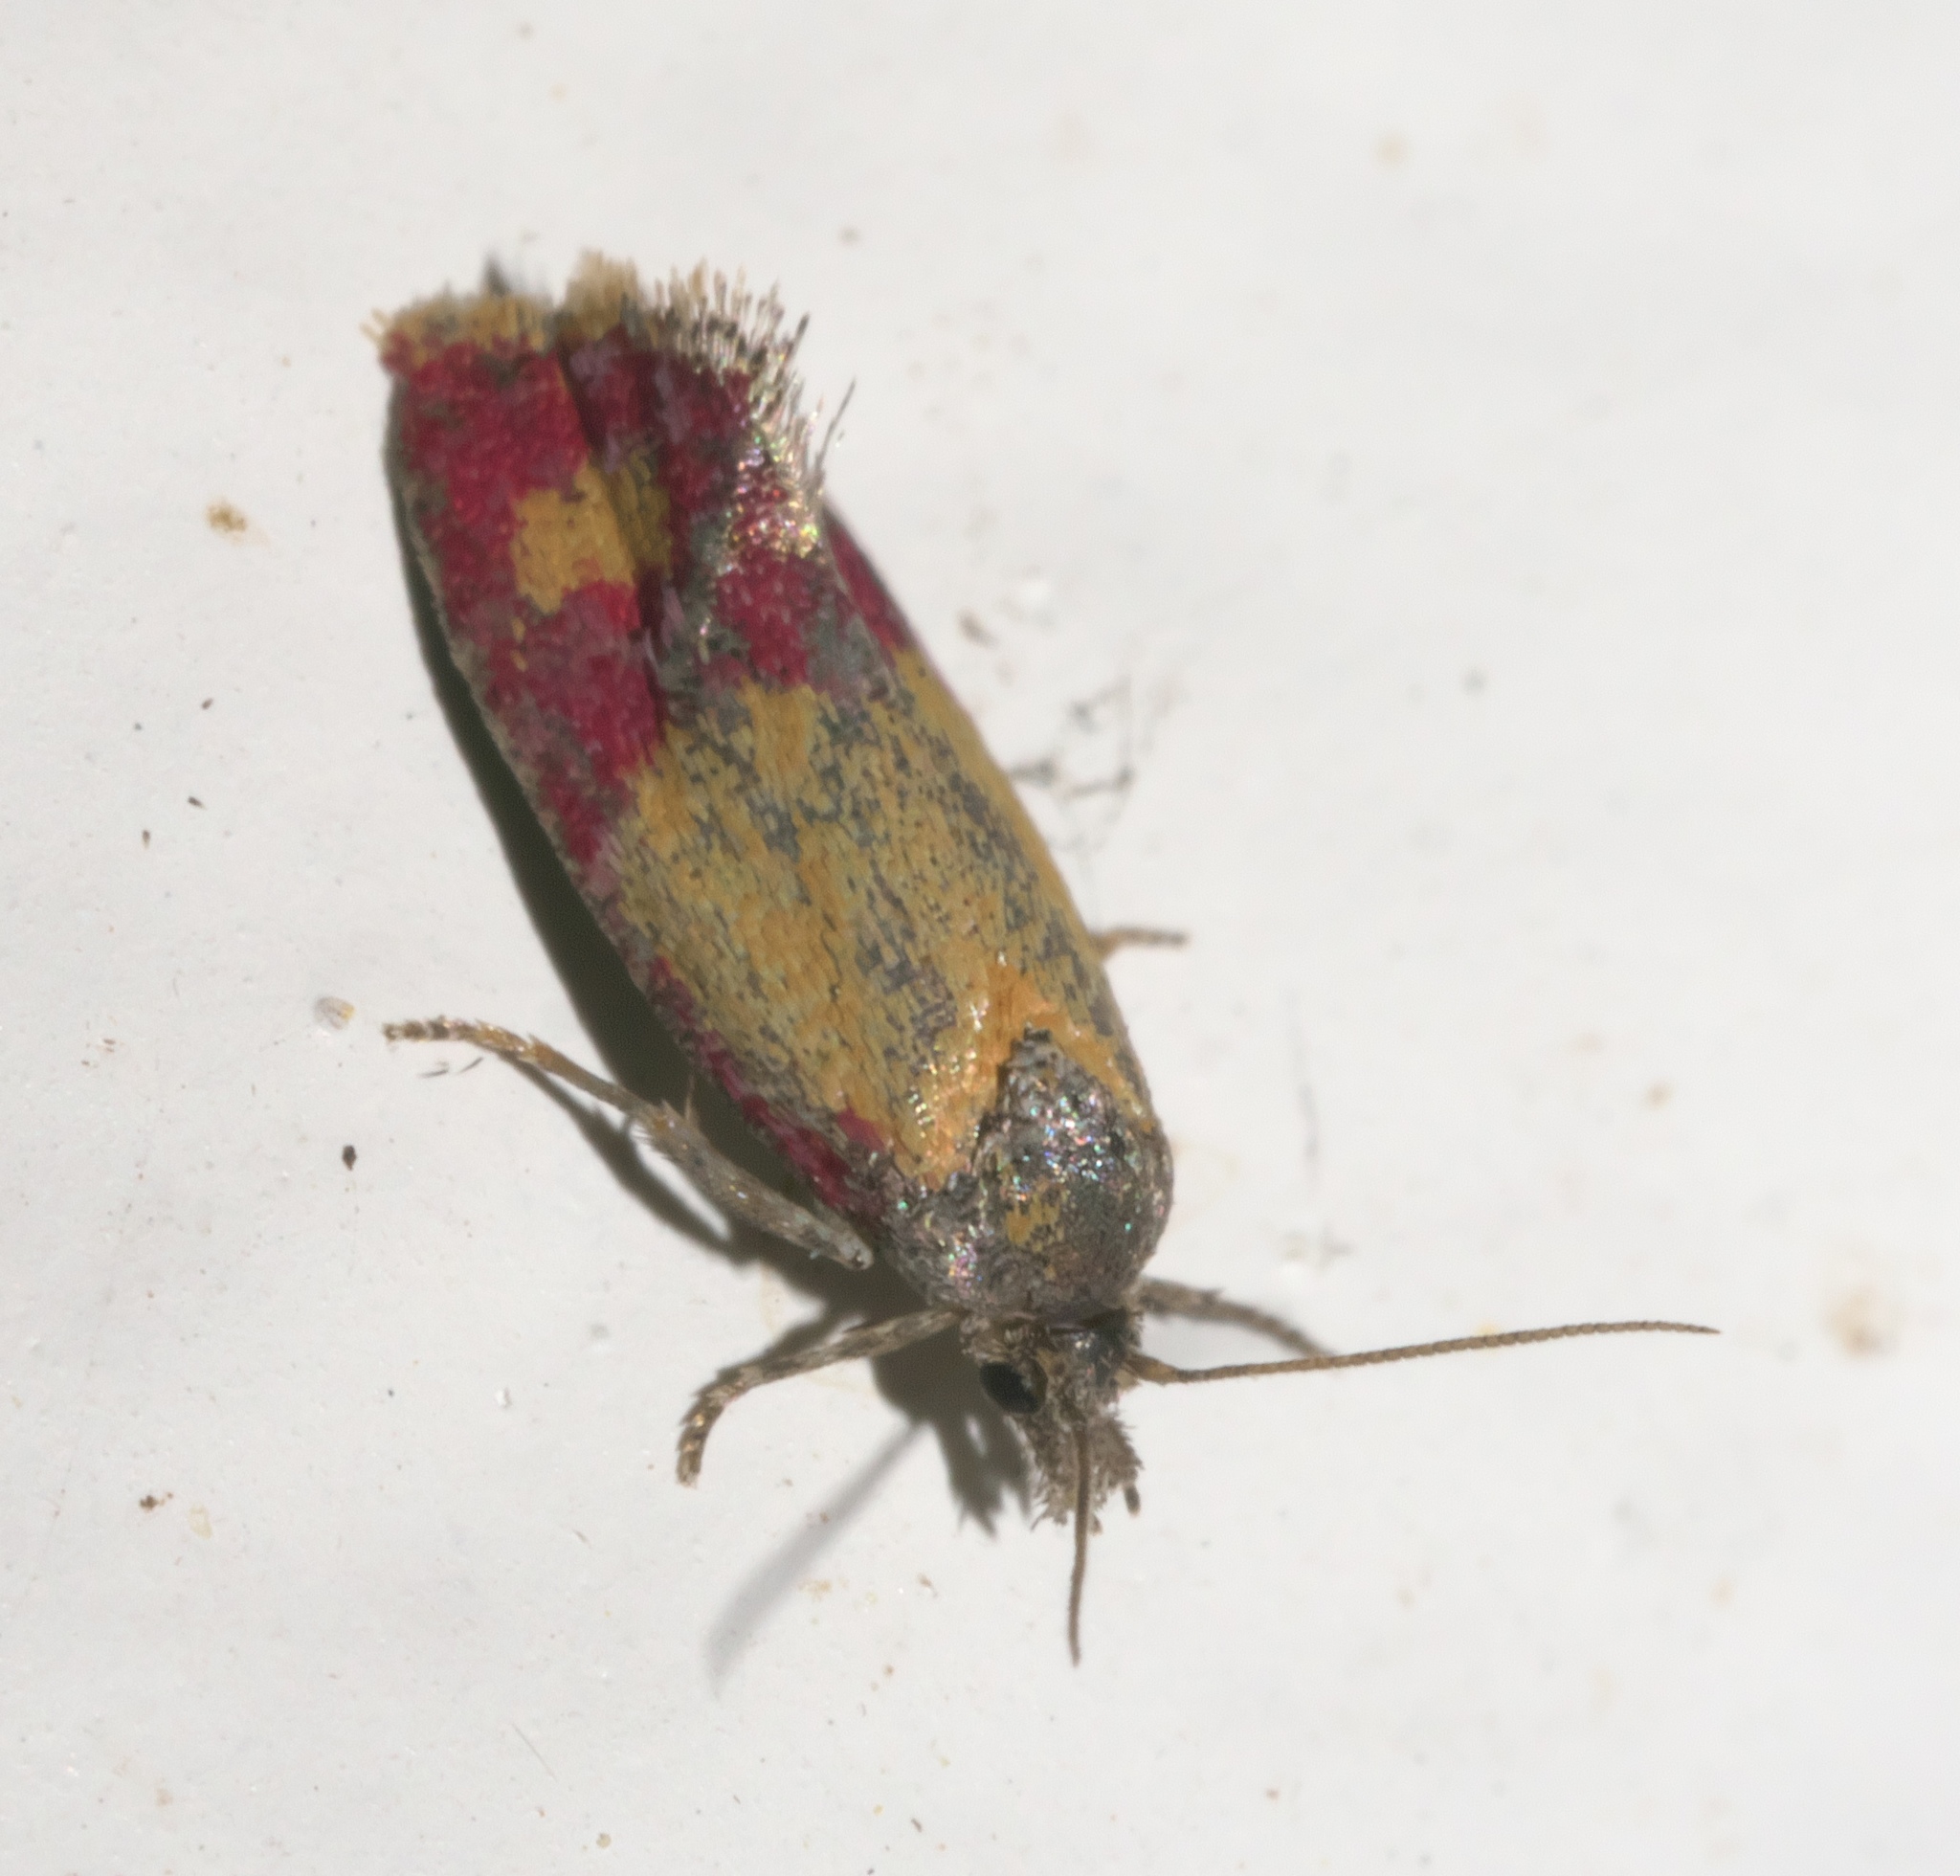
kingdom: Animalia
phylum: Arthropoda
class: Insecta
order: Lepidoptera
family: Tortricidae
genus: Conchylis
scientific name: Conchylis oenotherana
